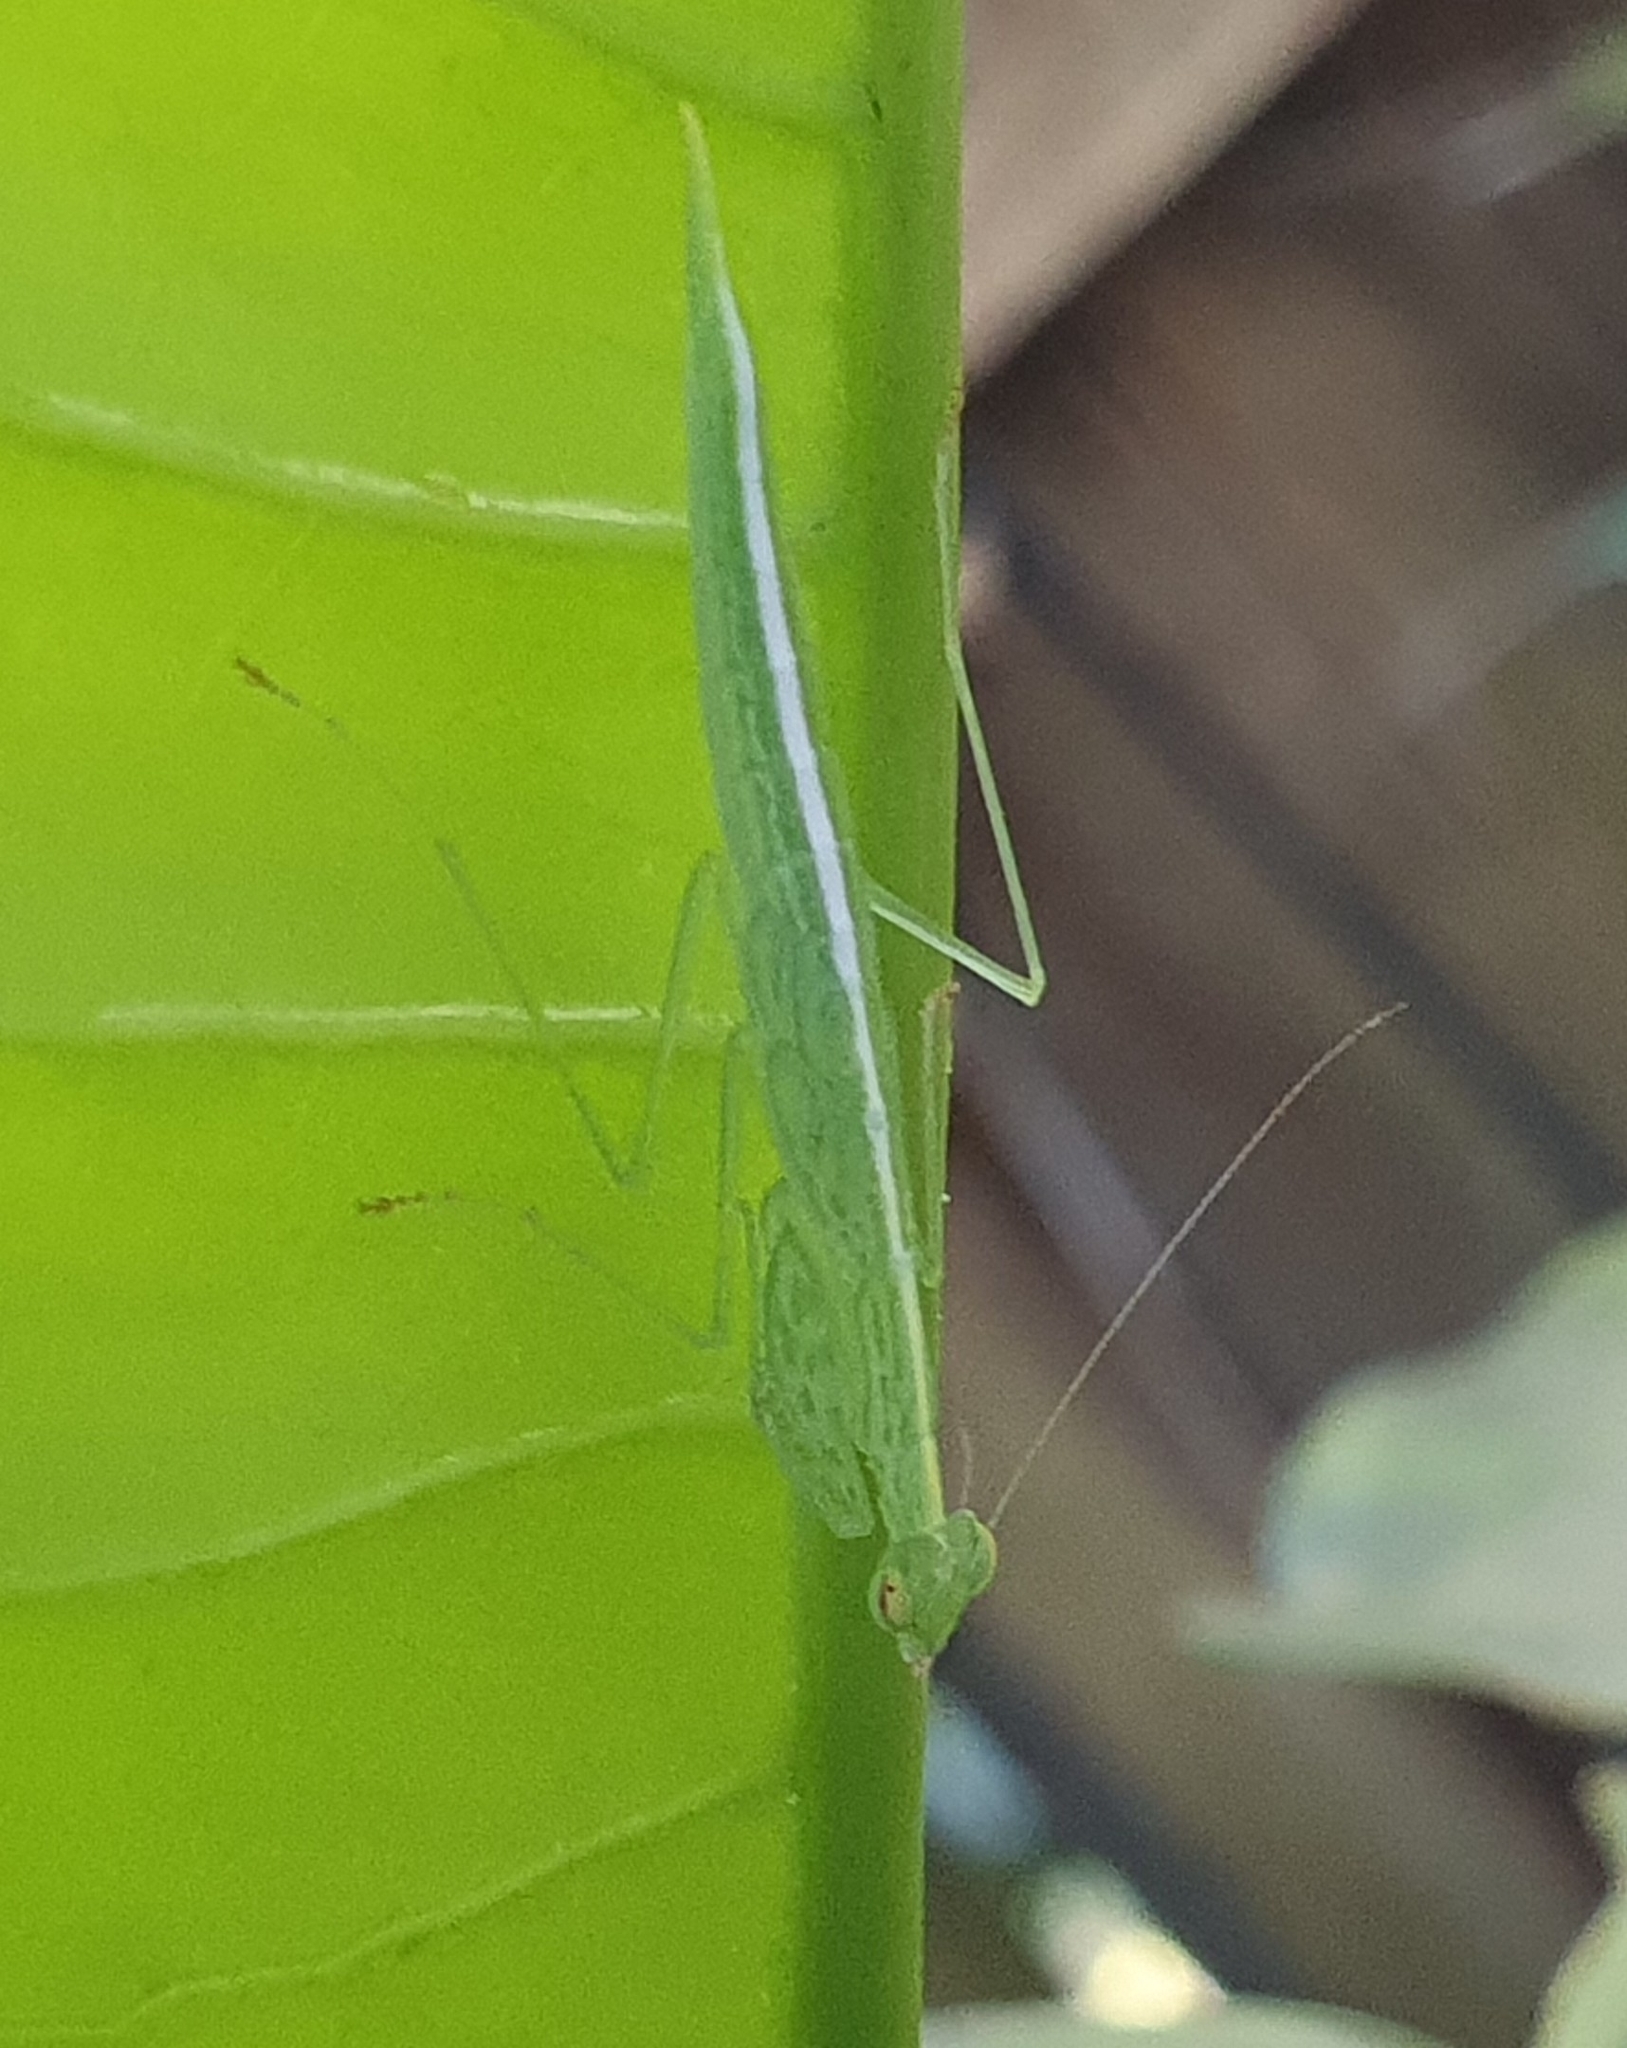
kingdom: Animalia
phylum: Arthropoda
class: Insecta
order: Mantodea
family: Nanomantidae
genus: Kongobatha
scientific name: Kongobatha diademata
